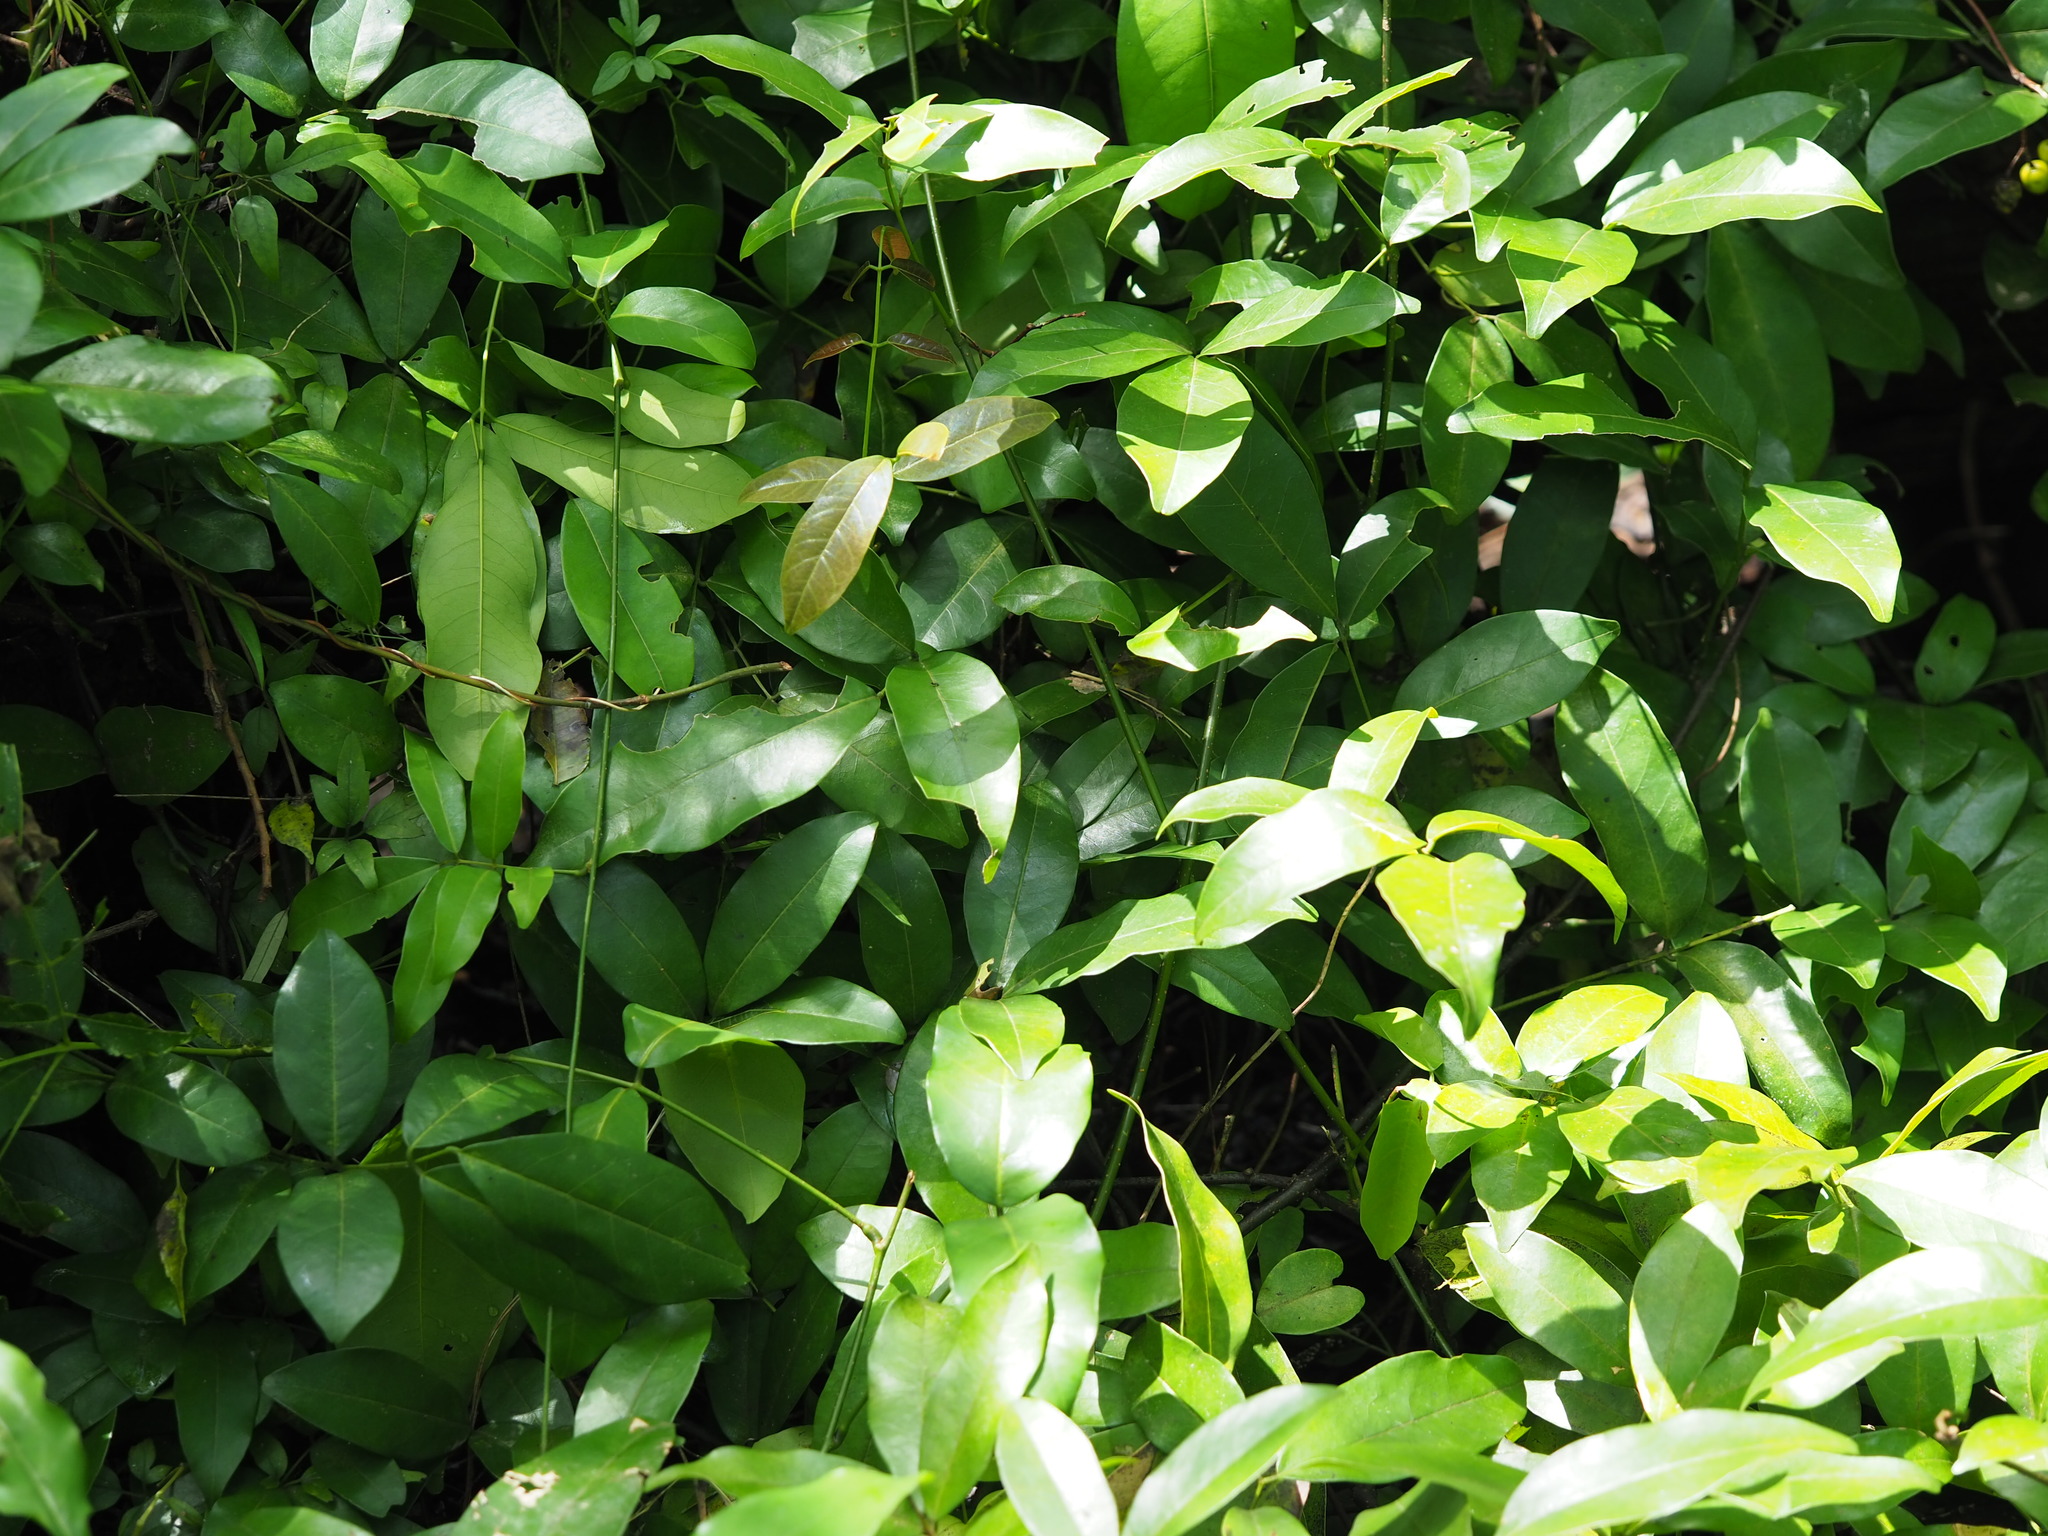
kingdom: Plantae
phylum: Tracheophyta
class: Magnoliopsida
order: Fabales
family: Fabaceae
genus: Wisteriopsis
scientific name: Wisteriopsis reticulata
